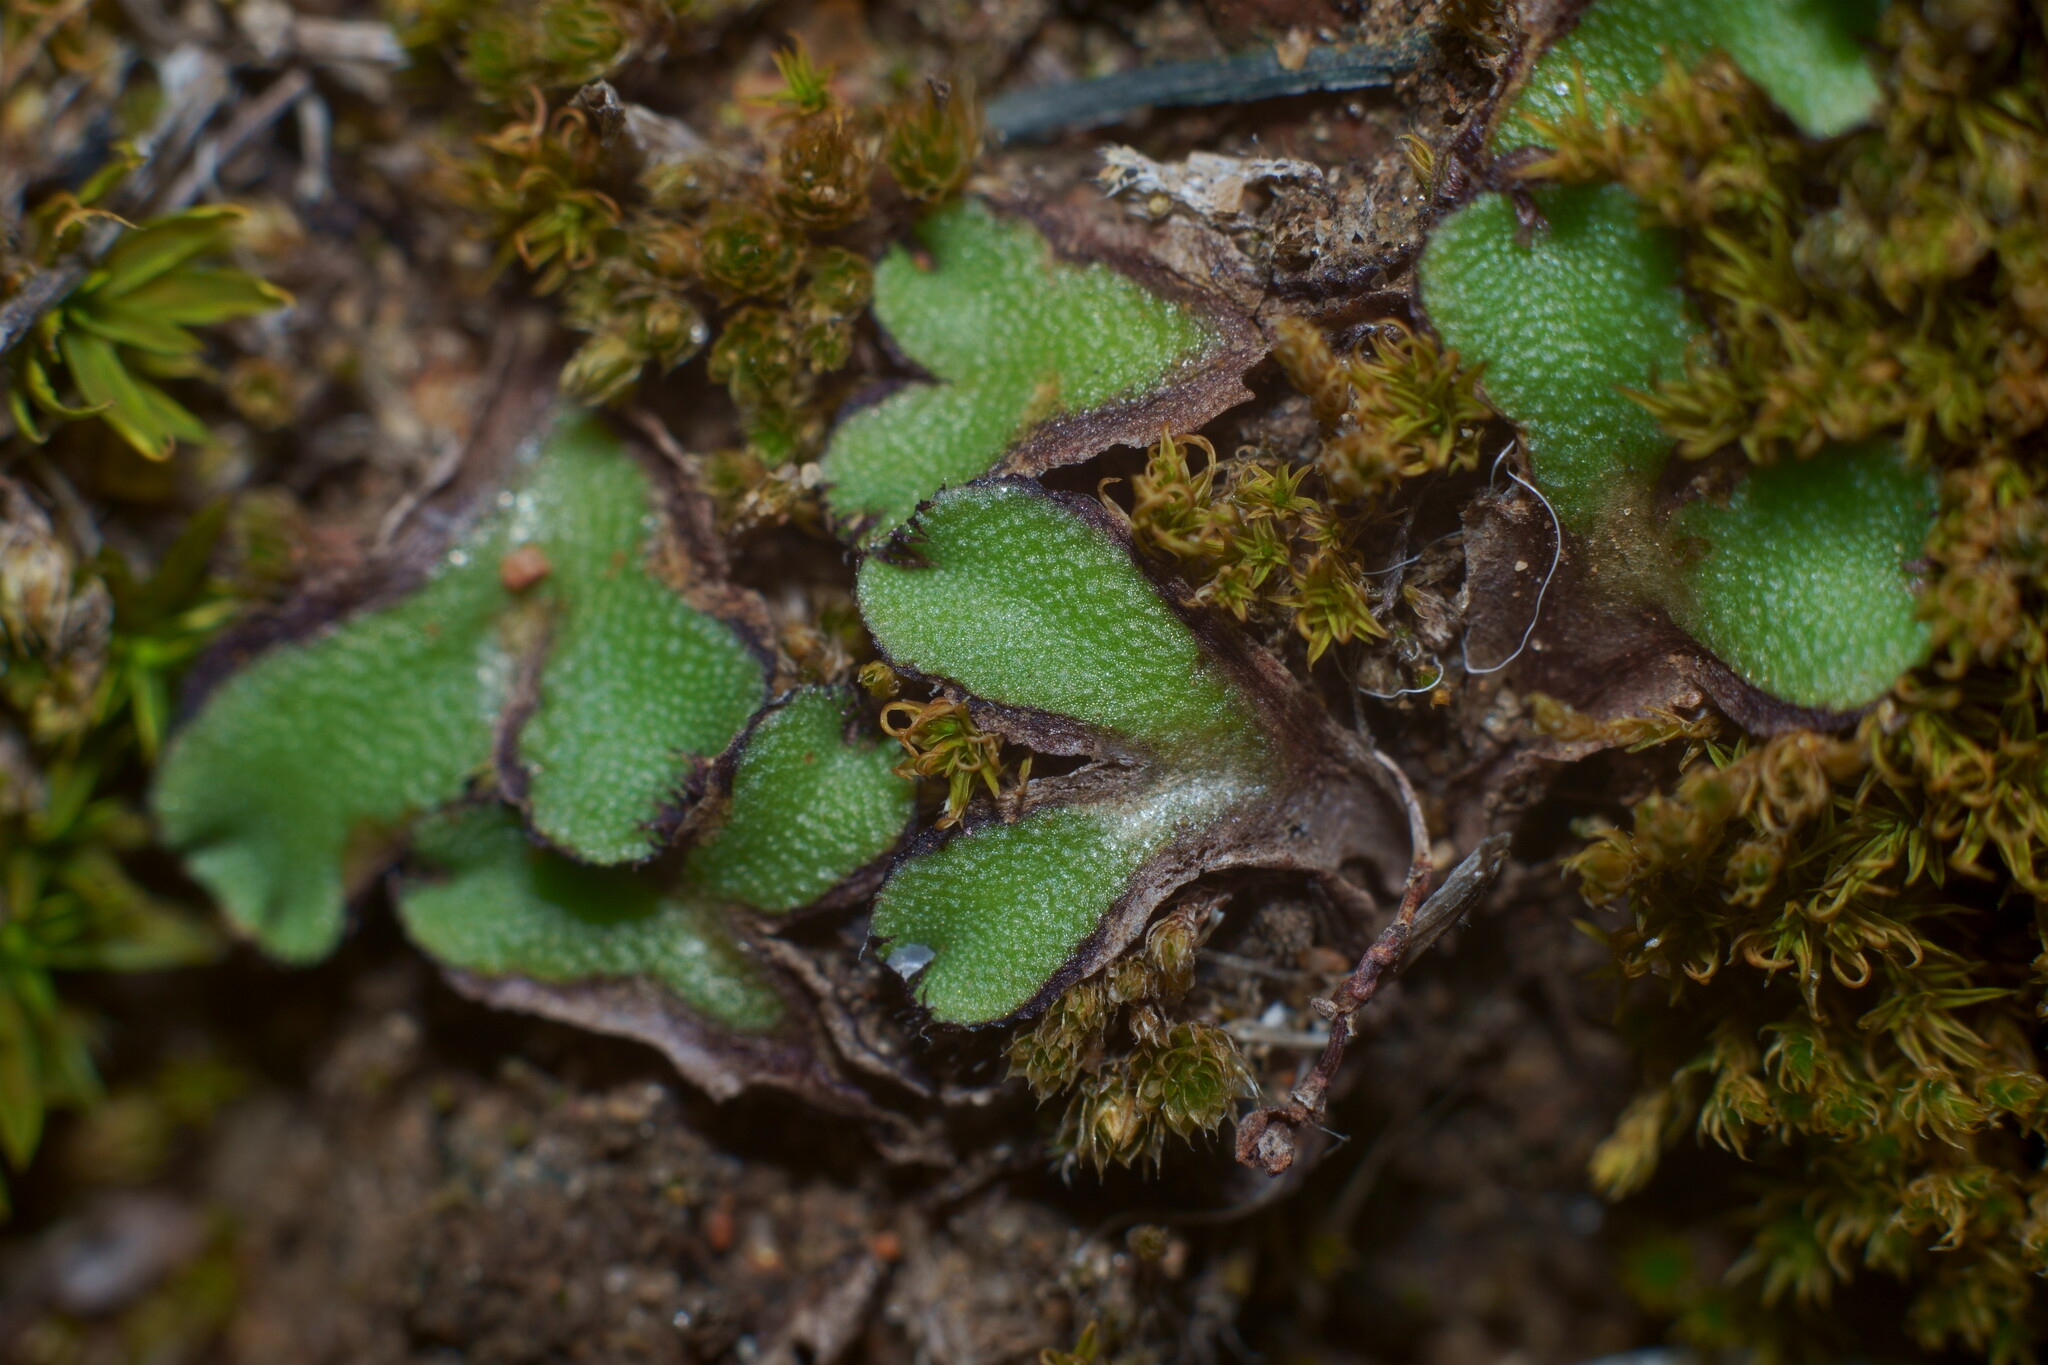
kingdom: Plantae
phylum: Marchantiophyta
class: Marchantiopsida
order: Marchantiales
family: Aytoniaceae
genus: Asterella
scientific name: Asterella californica
